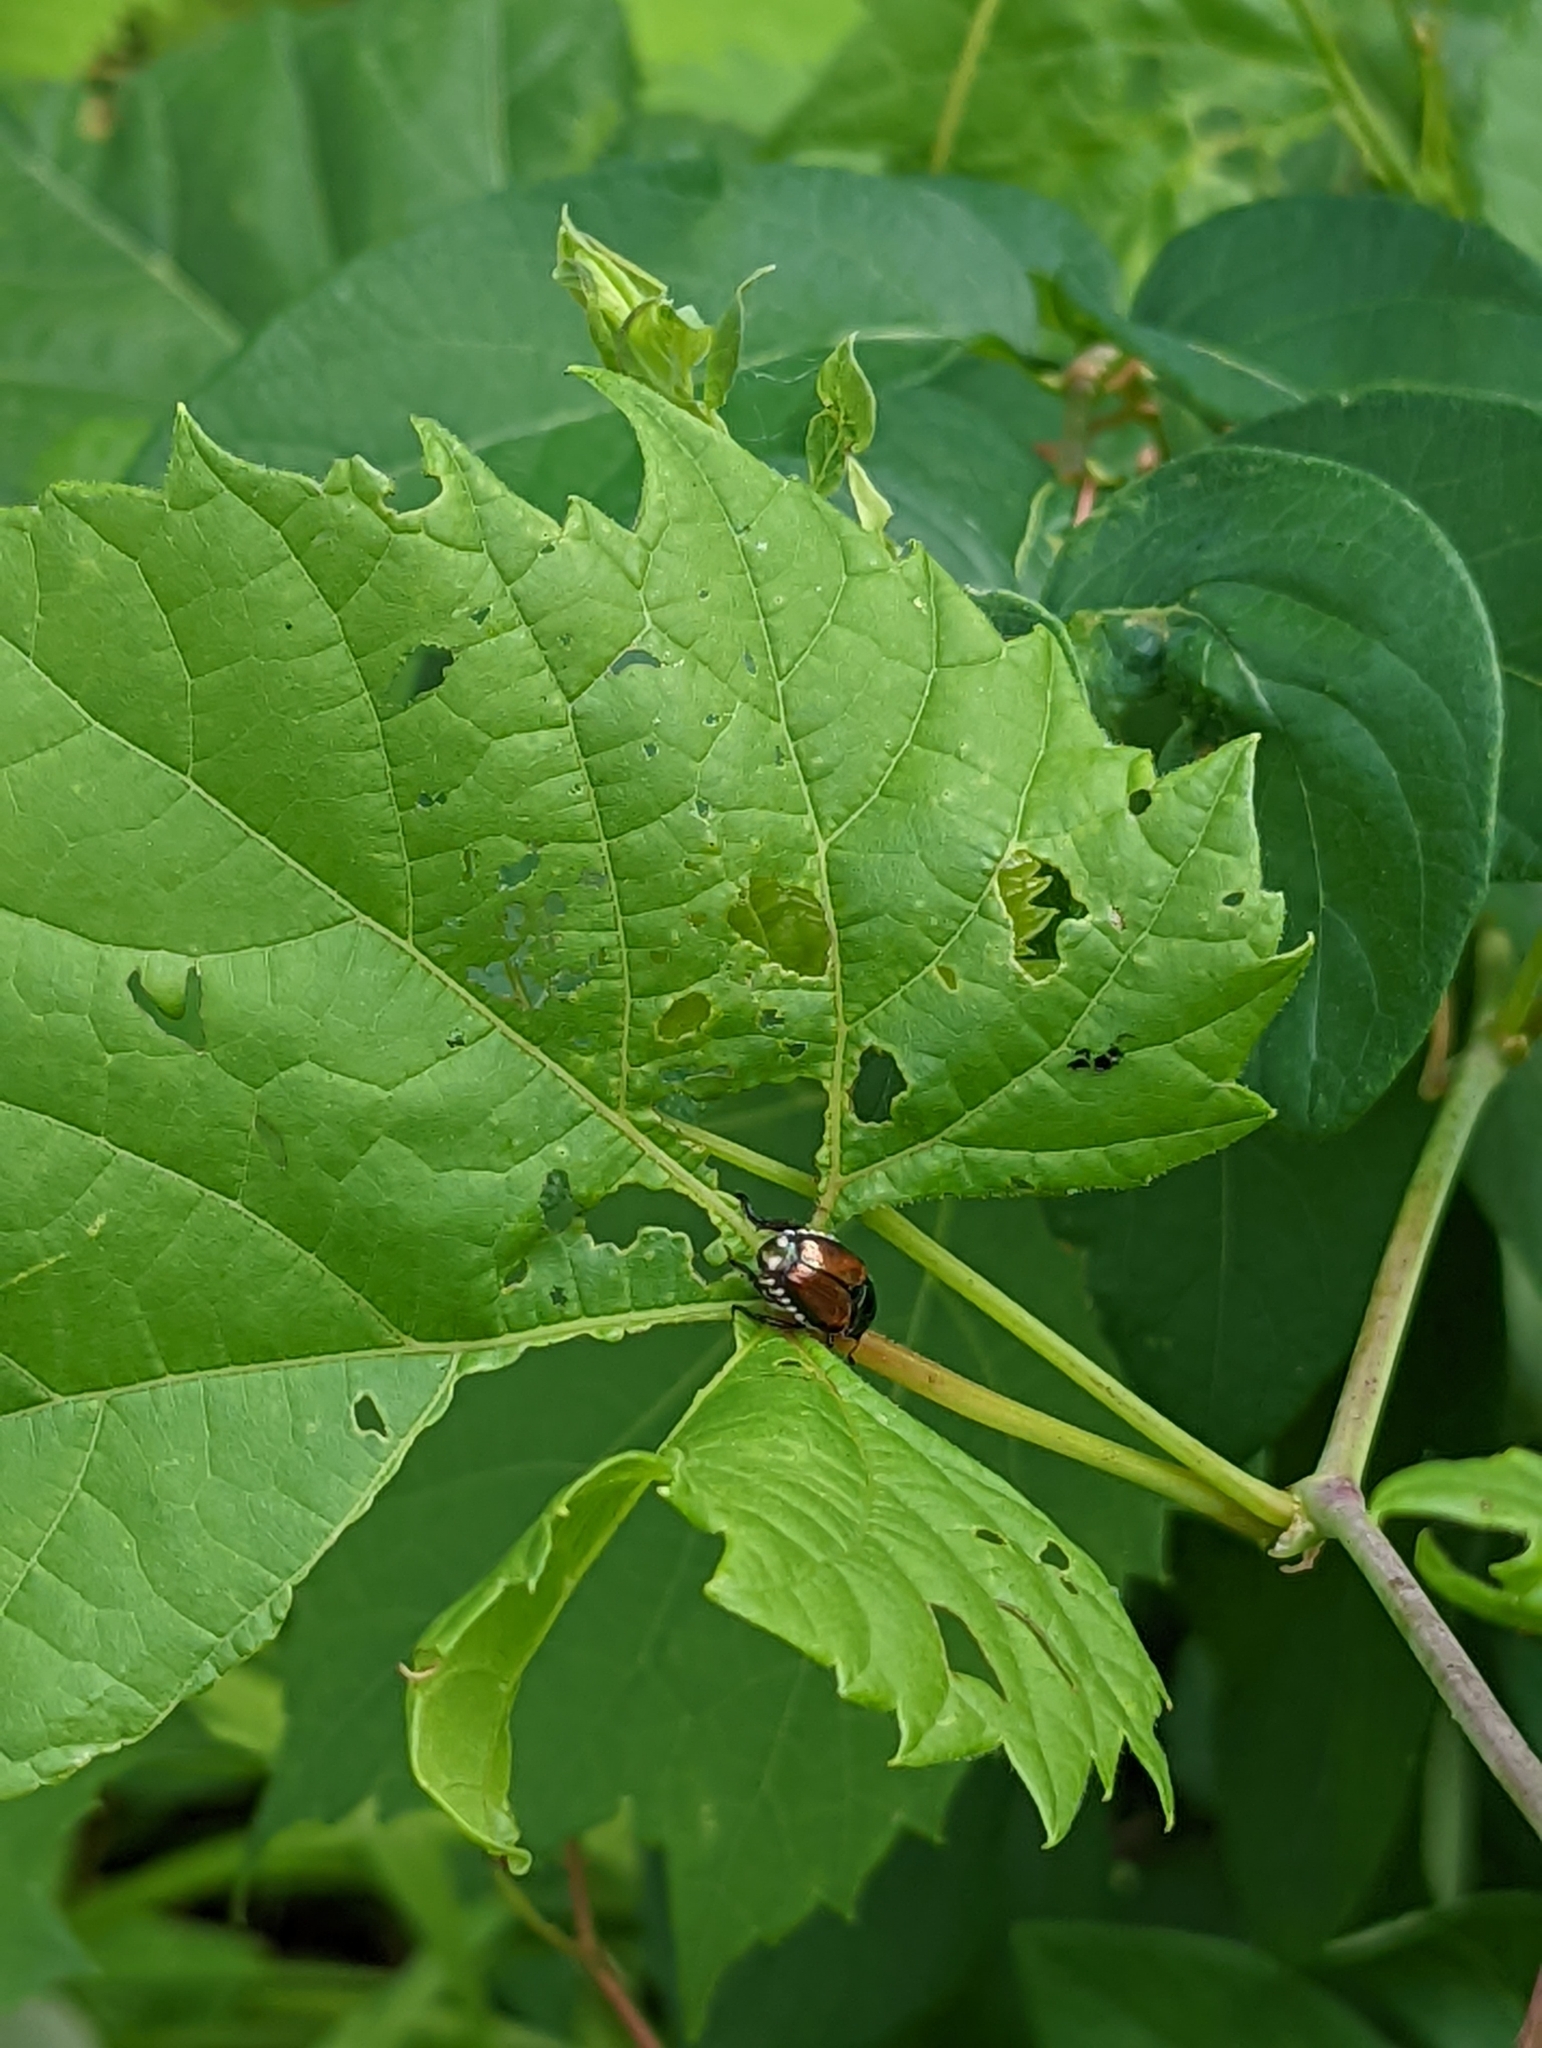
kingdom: Animalia
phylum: Arthropoda
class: Insecta
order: Coleoptera
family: Scarabaeidae
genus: Popillia
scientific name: Popillia japonica
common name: Japanese beetle
